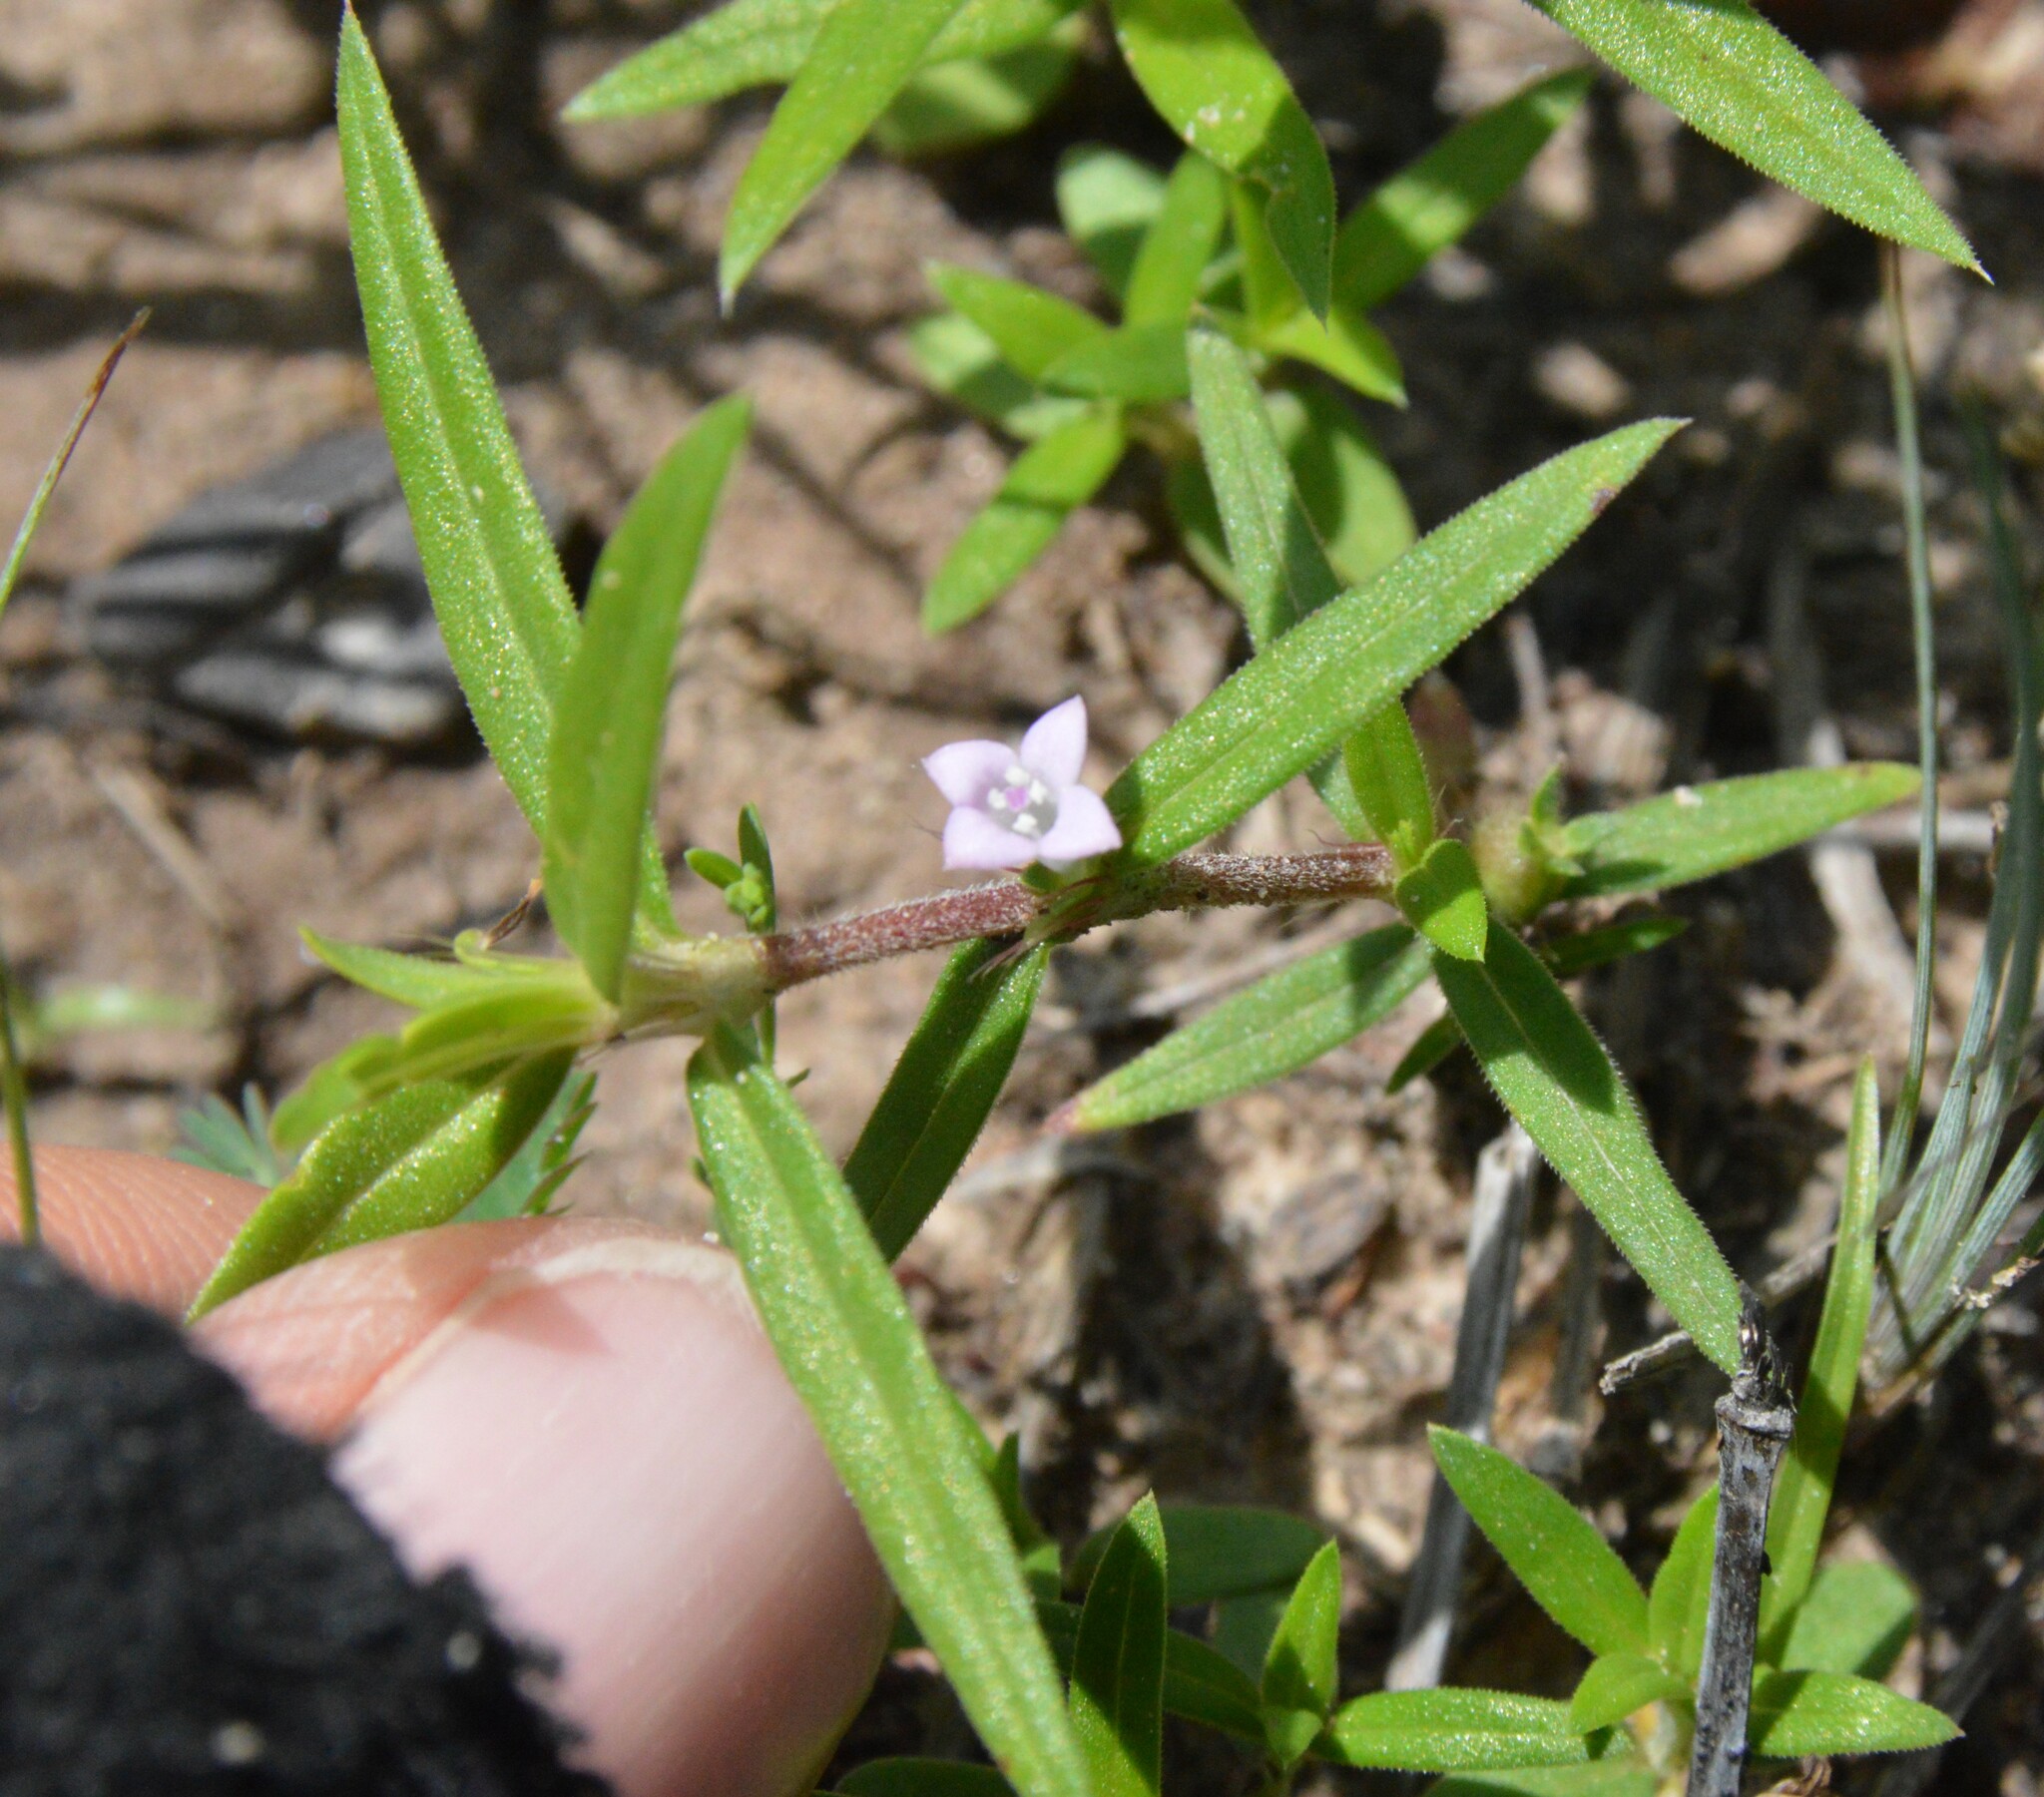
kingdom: Plantae
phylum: Tracheophyta
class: Magnoliopsida
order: Gentianales
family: Rubiaceae
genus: Hexasepalum
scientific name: Hexasepalum teres
